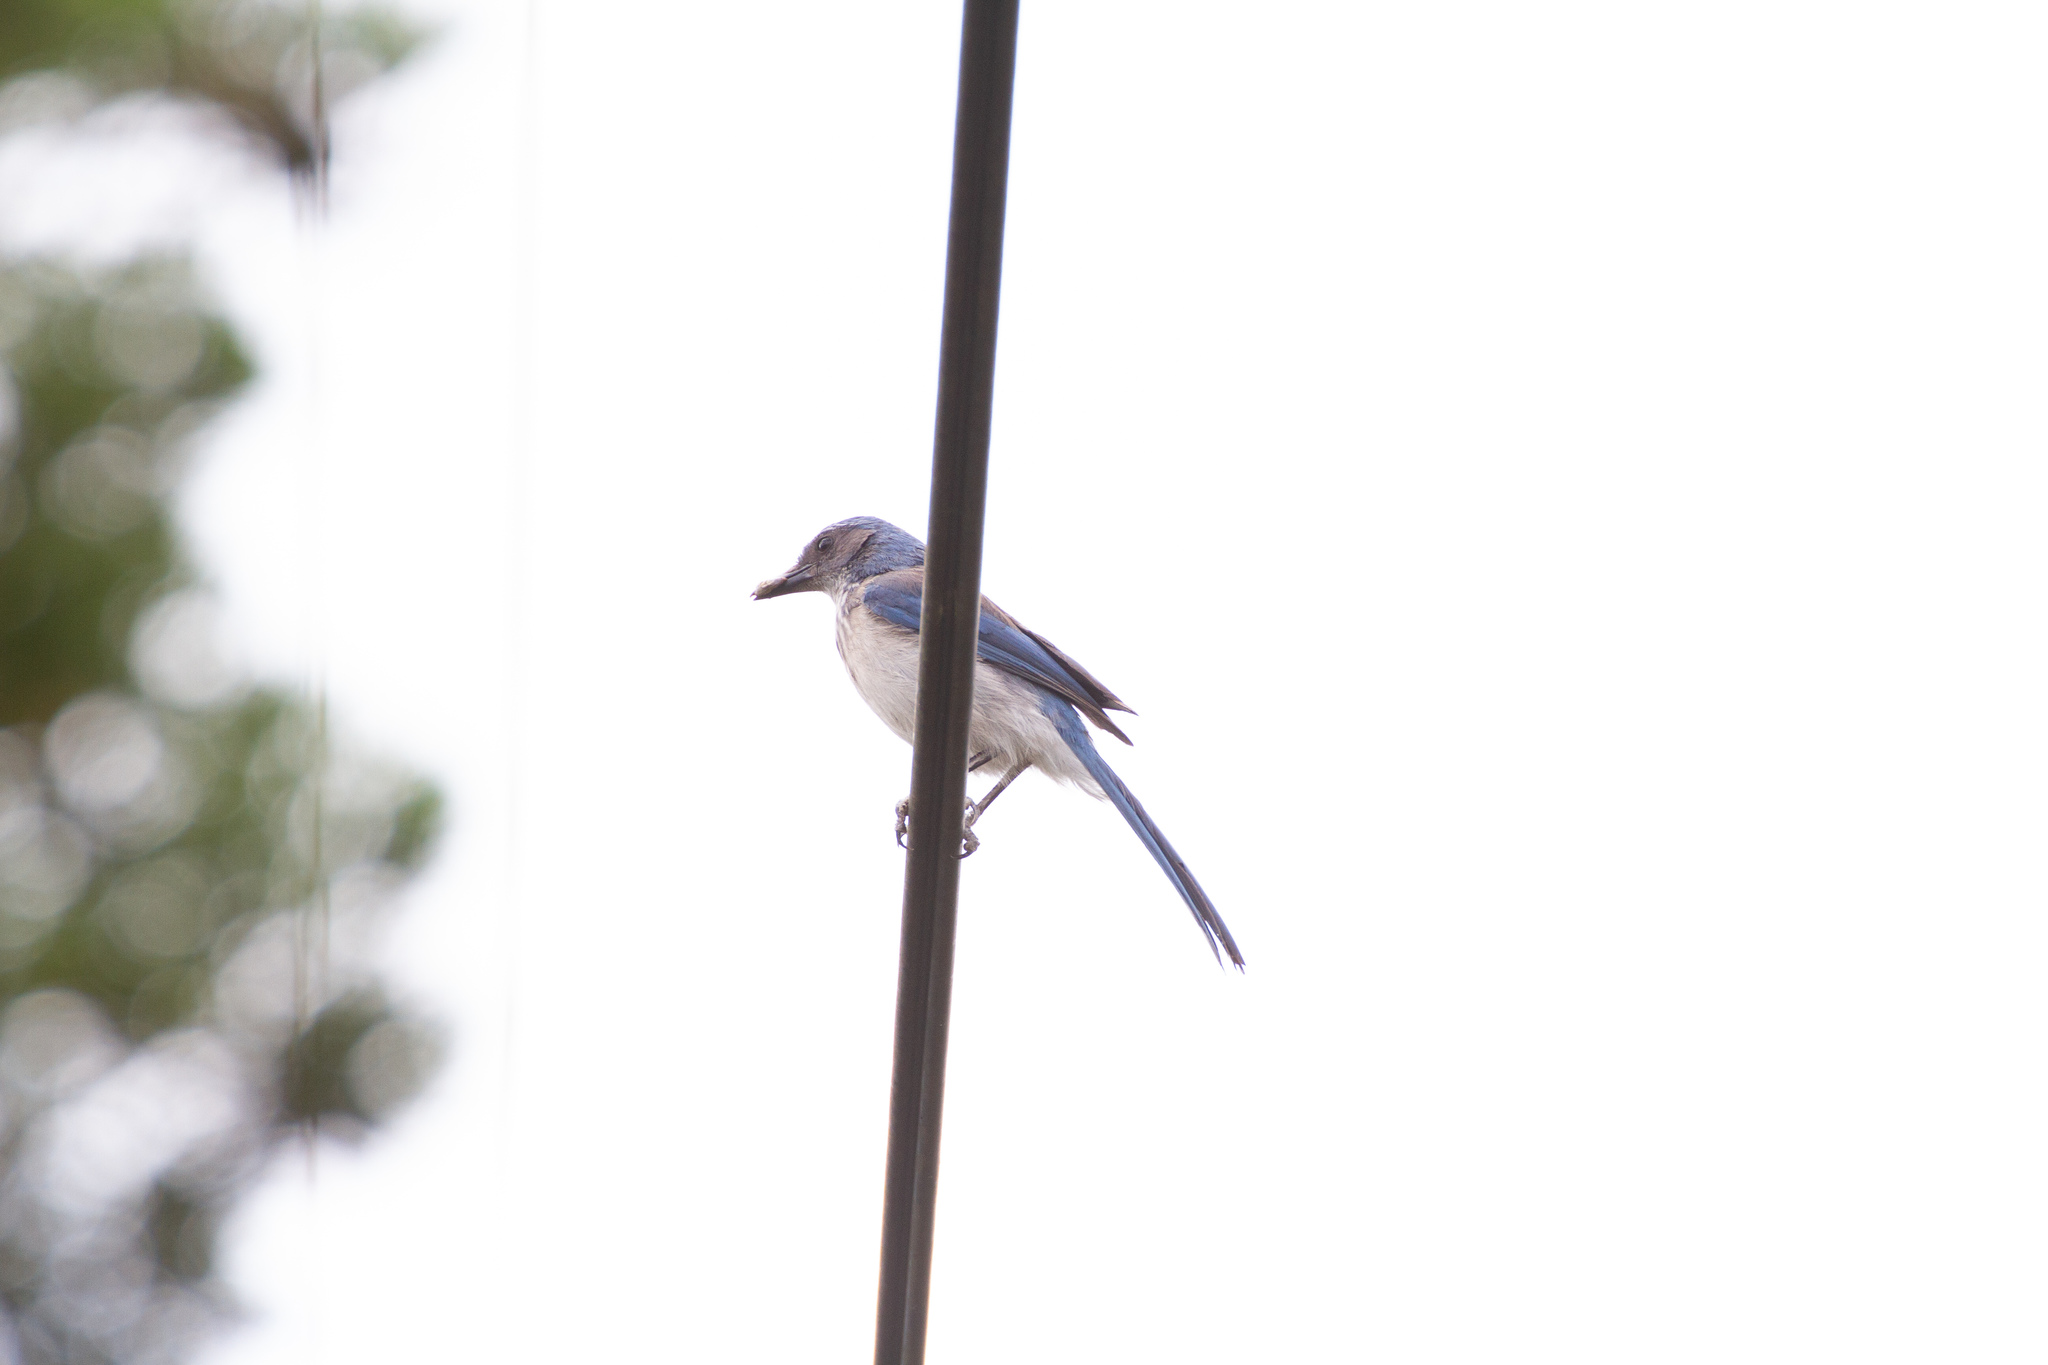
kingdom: Animalia
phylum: Chordata
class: Aves
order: Passeriformes
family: Corvidae
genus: Aphelocoma
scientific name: Aphelocoma woodhouseii
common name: Woodhouse's scrub-jay
